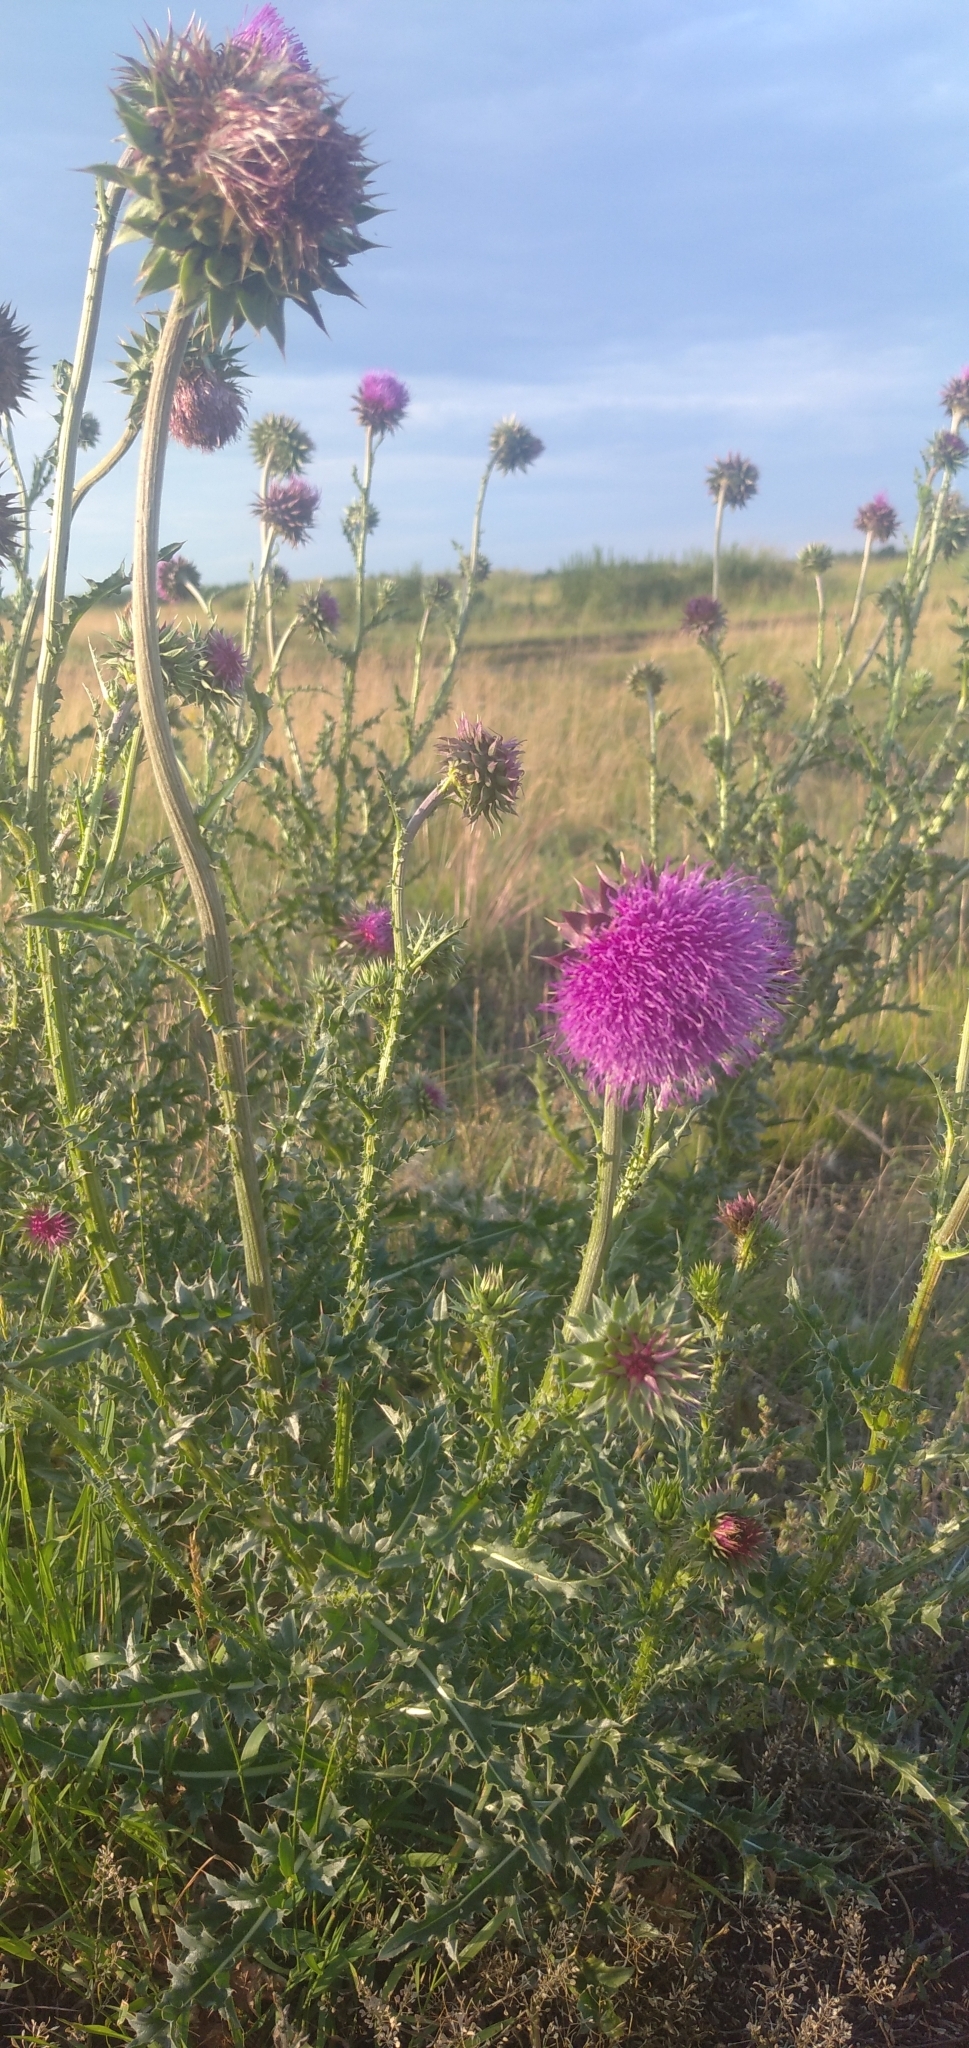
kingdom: Plantae
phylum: Tracheophyta
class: Magnoliopsida
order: Asterales
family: Asteraceae
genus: Carduus
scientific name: Carduus nutans
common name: Musk thistle
